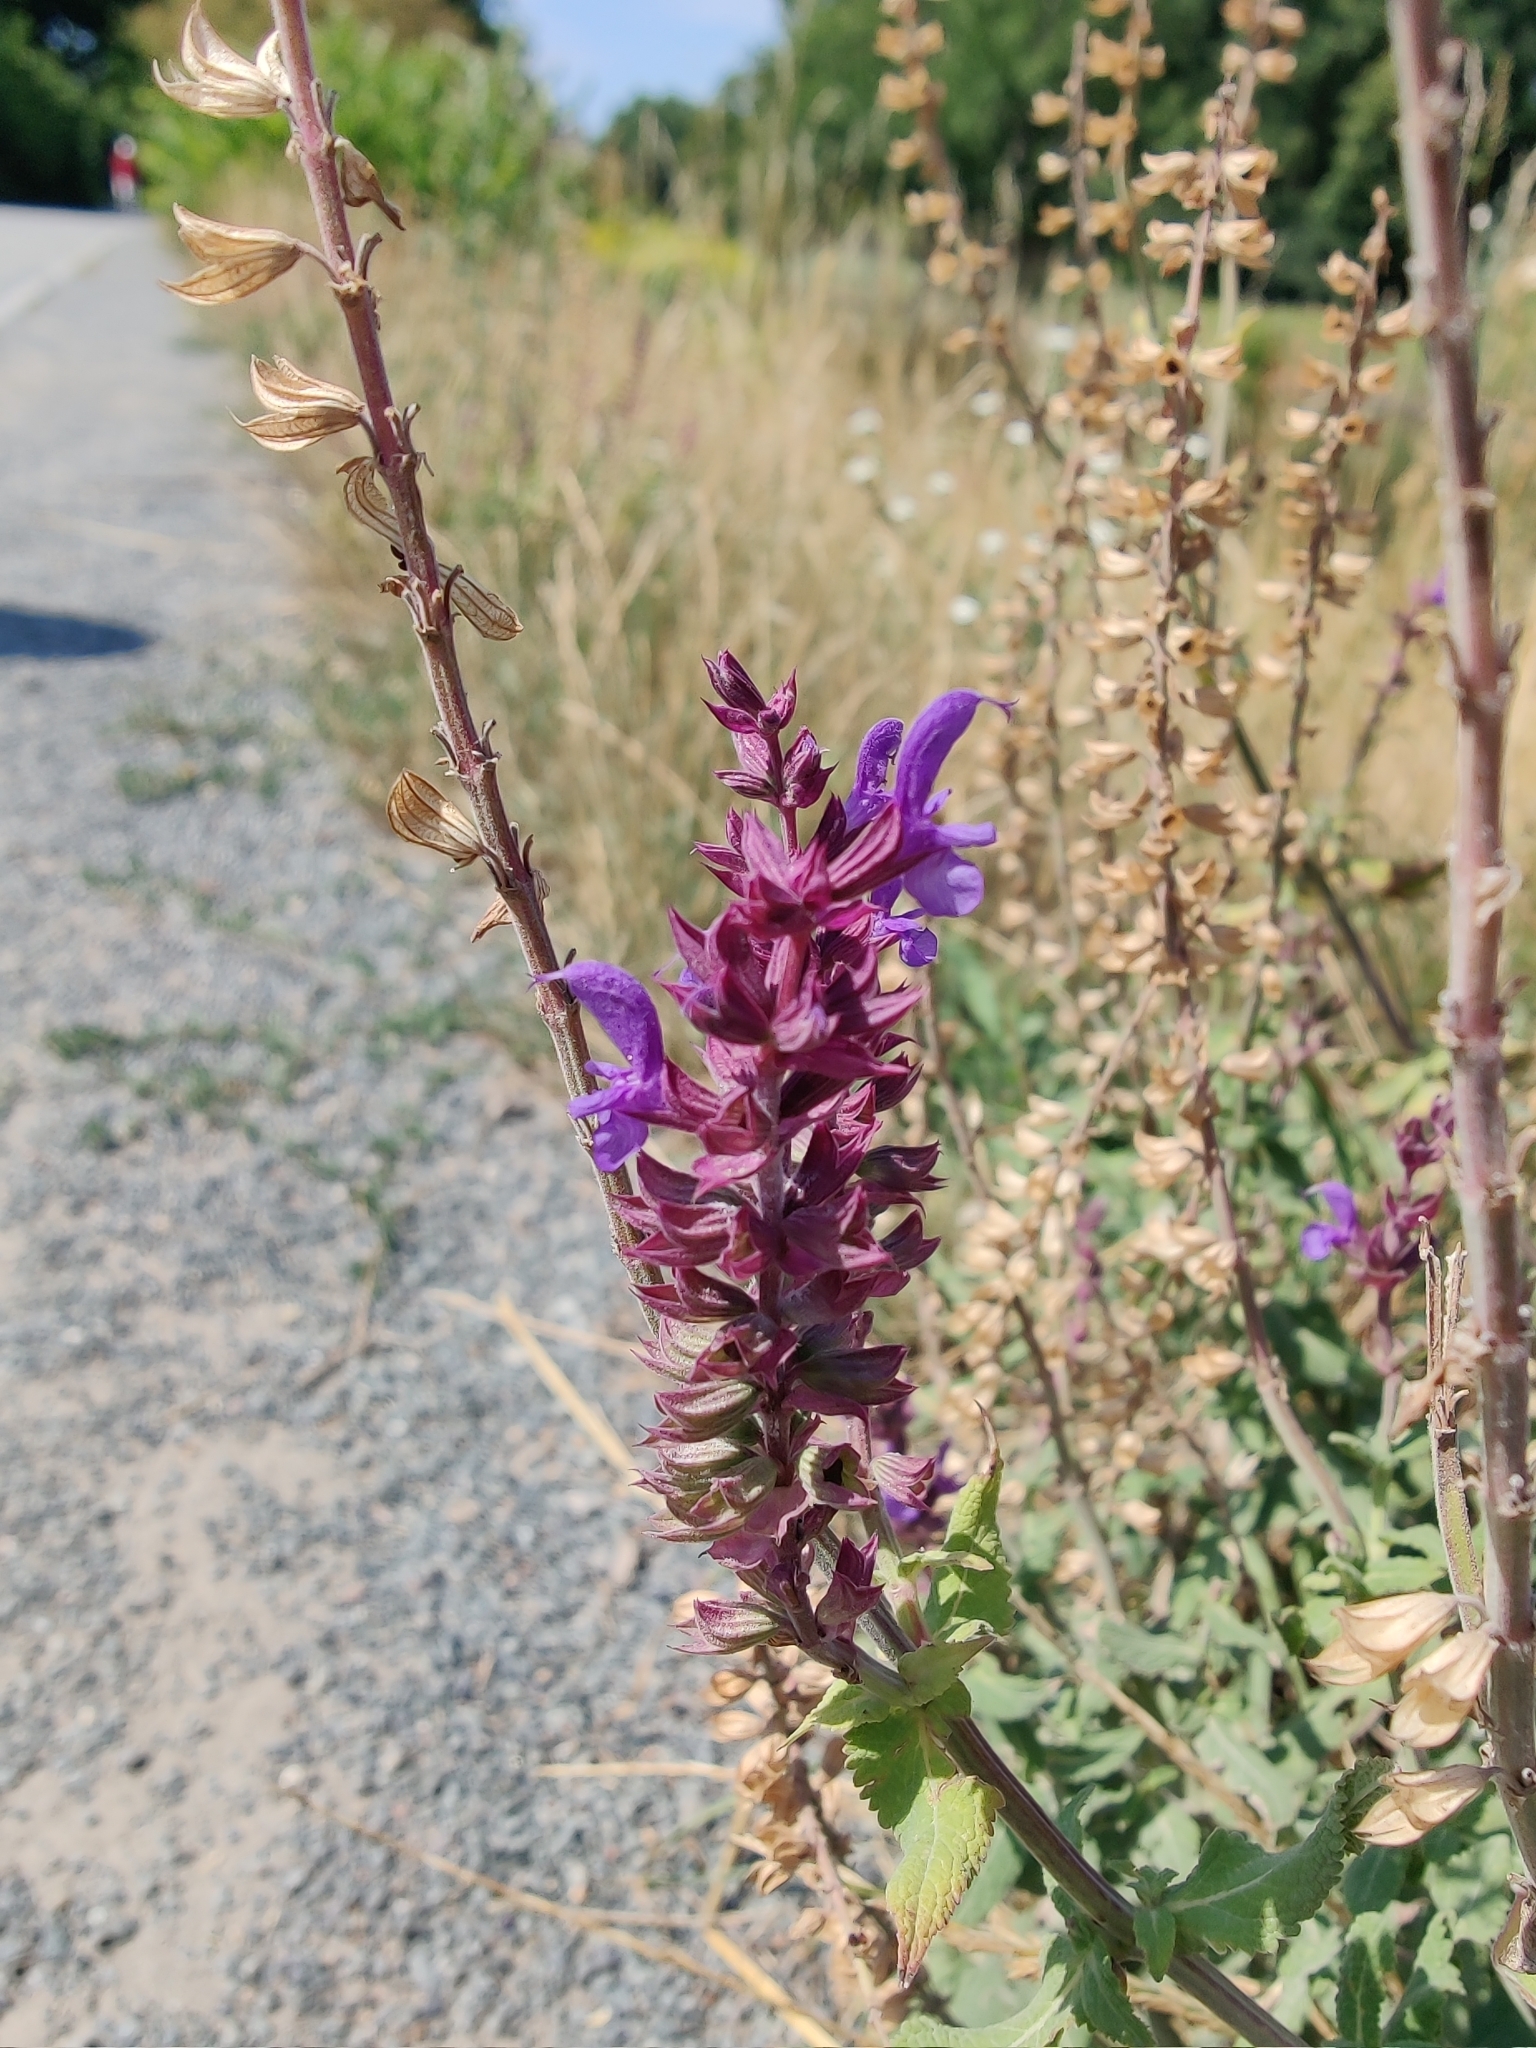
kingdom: Plantae
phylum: Tracheophyta
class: Magnoliopsida
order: Lamiales
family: Lamiaceae
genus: Salvia
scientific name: Salvia nemorosa
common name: Balkan clary
